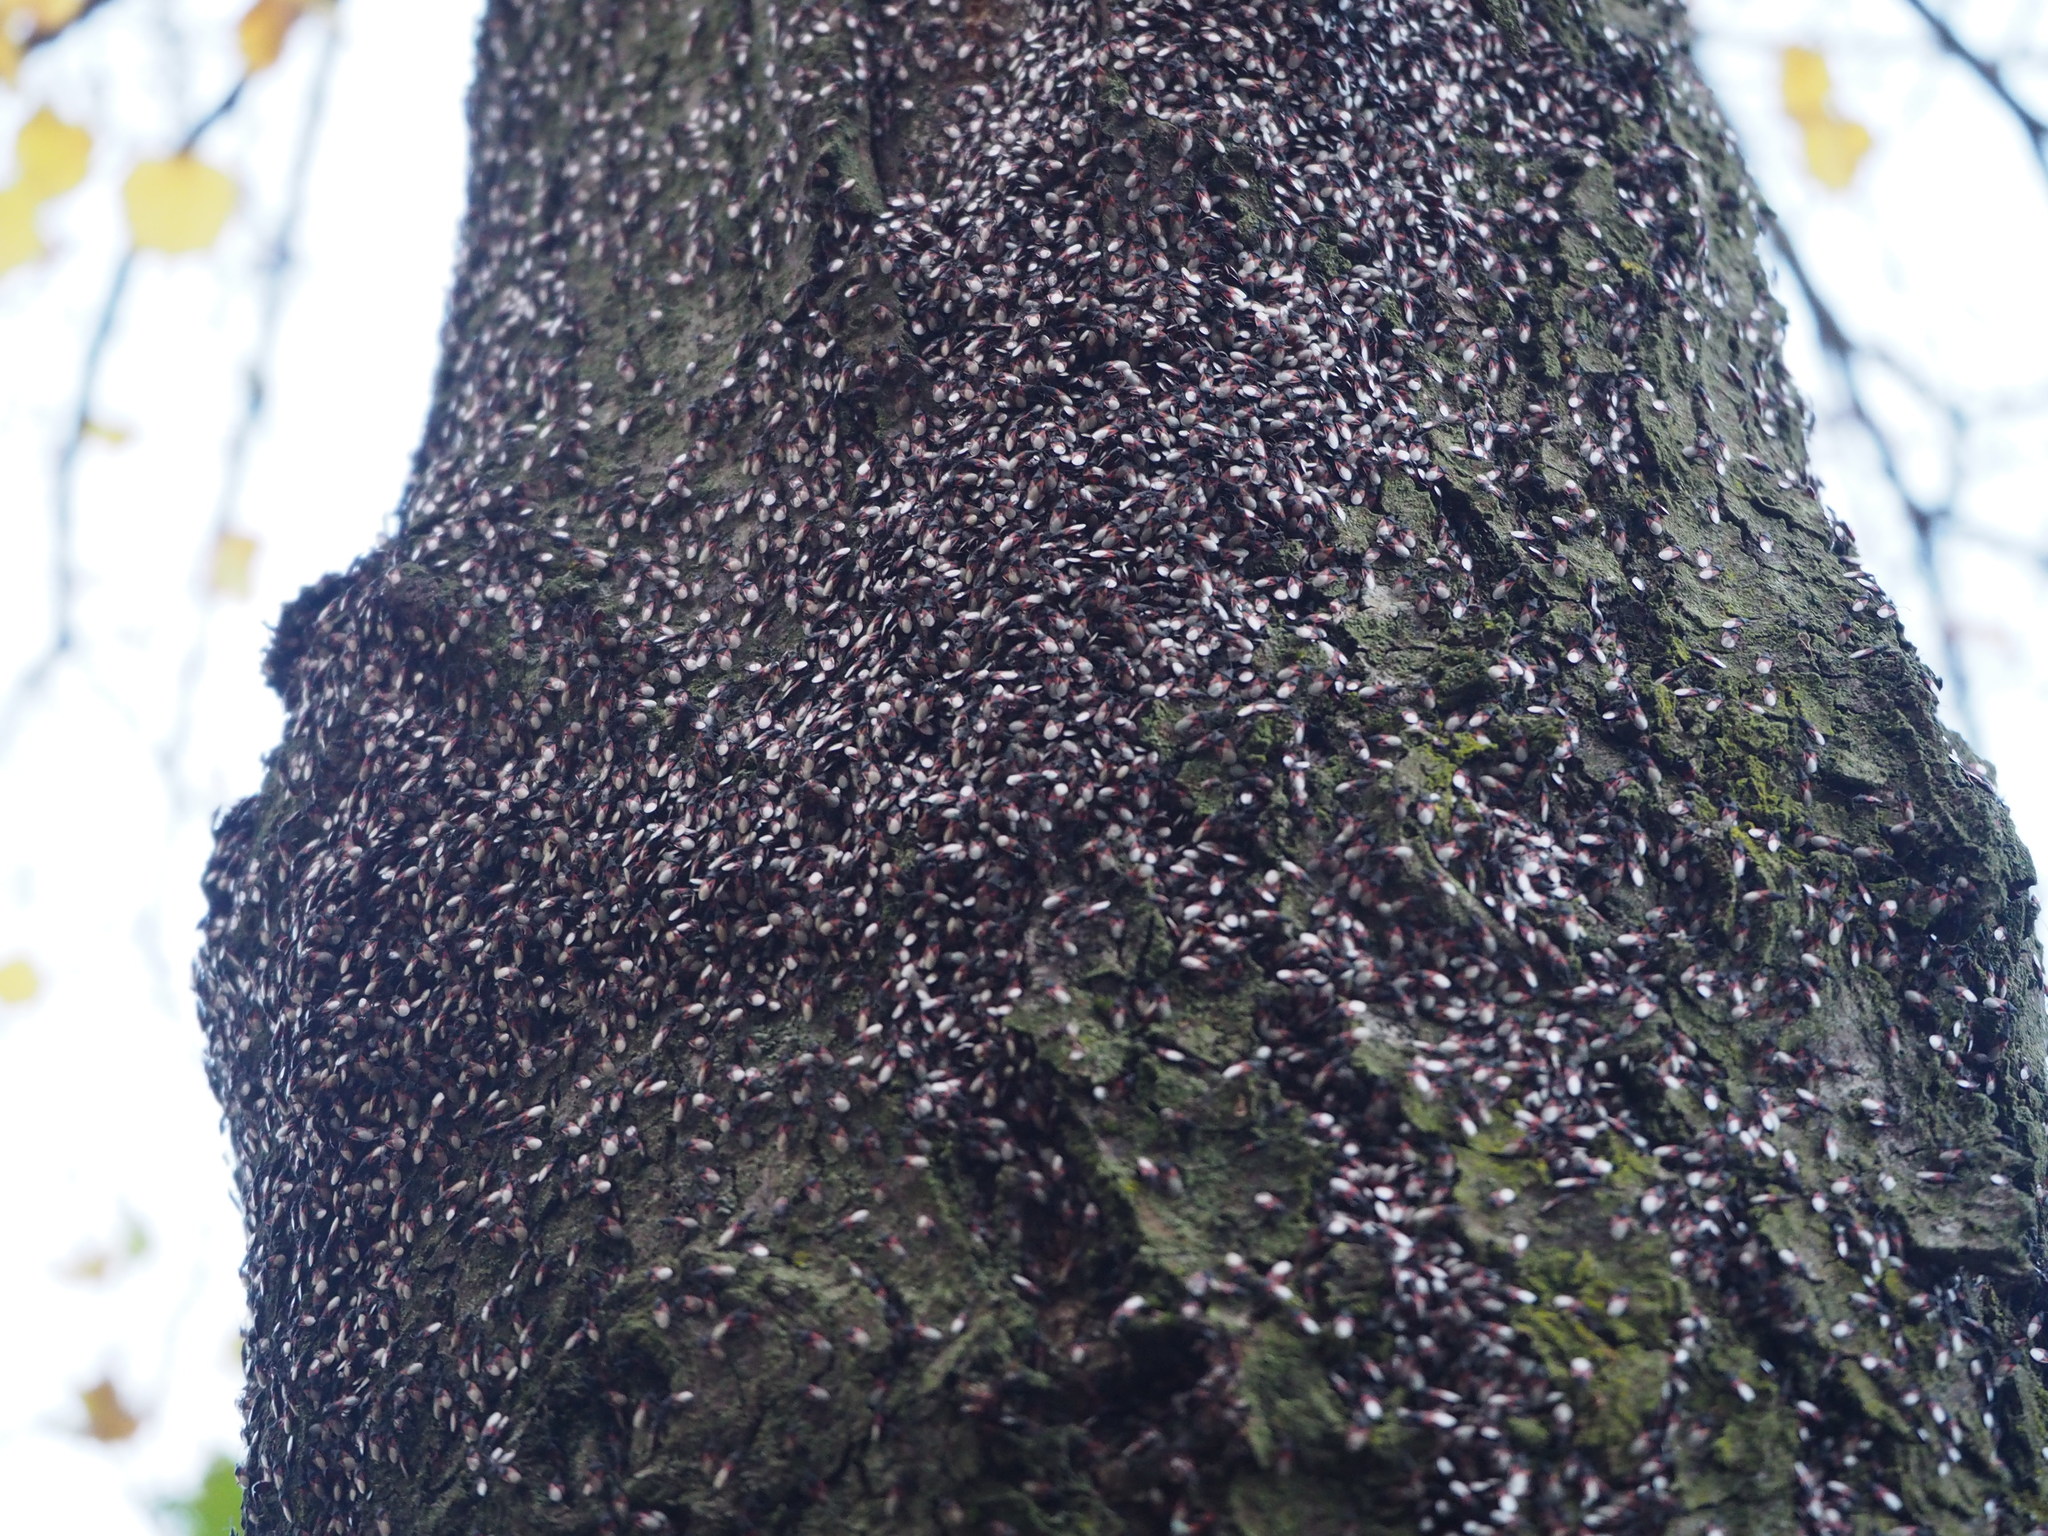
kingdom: Animalia
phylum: Arthropoda
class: Insecta
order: Hemiptera
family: Oxycarenidae
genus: Oxycarenus
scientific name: Oxycarenus lavaterae
